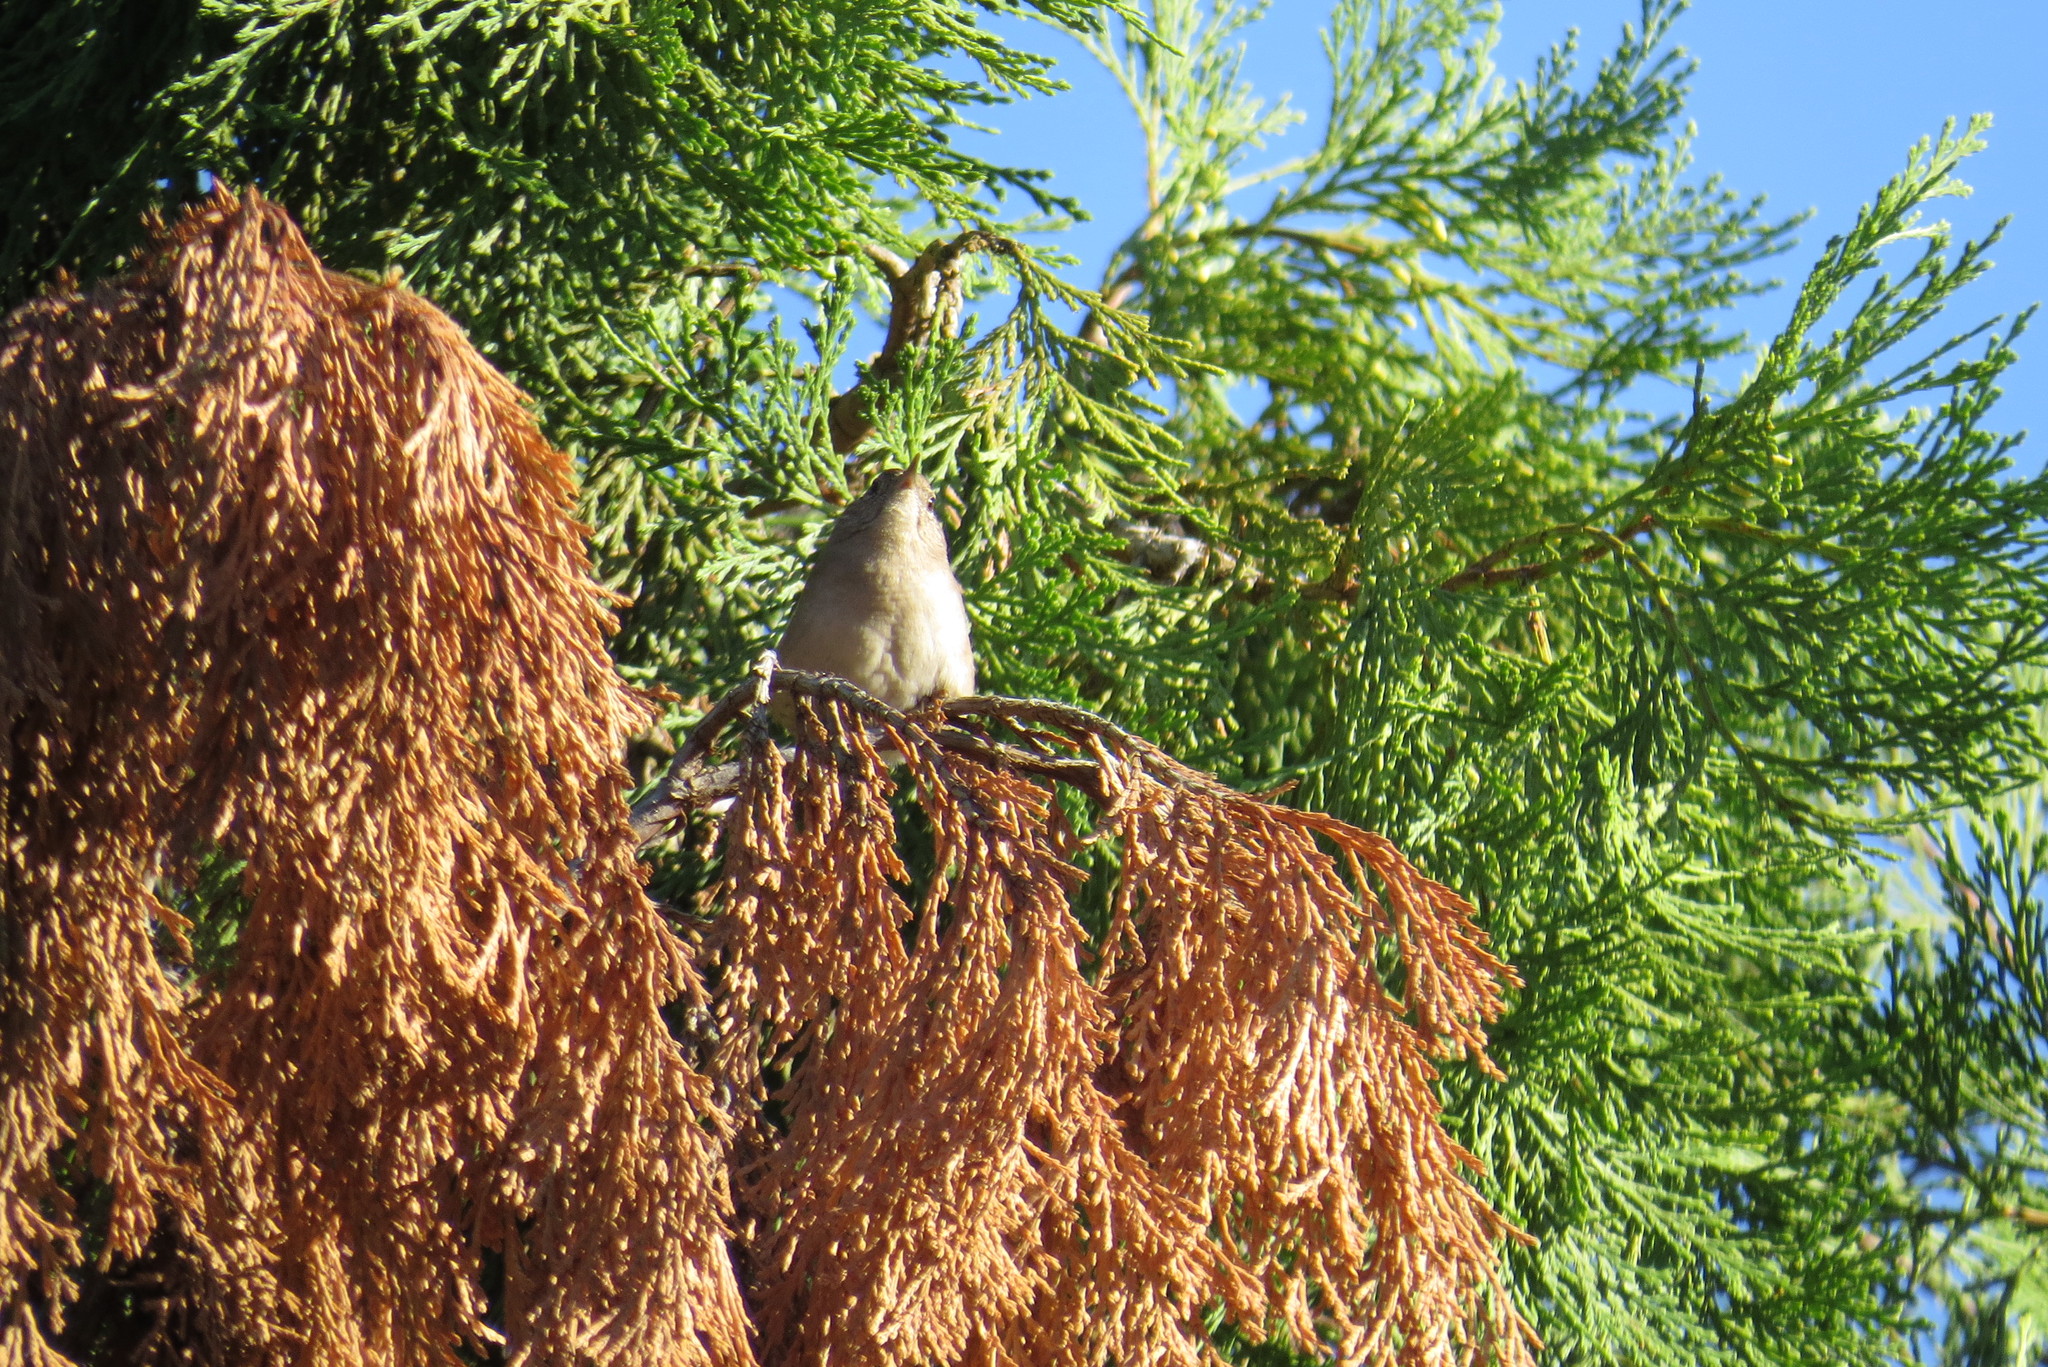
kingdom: Animalia
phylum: Chordata
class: Aves
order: Passeriformes
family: Troglodytidae
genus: Troglodytes
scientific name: Troglodytes aedon
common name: House wren
